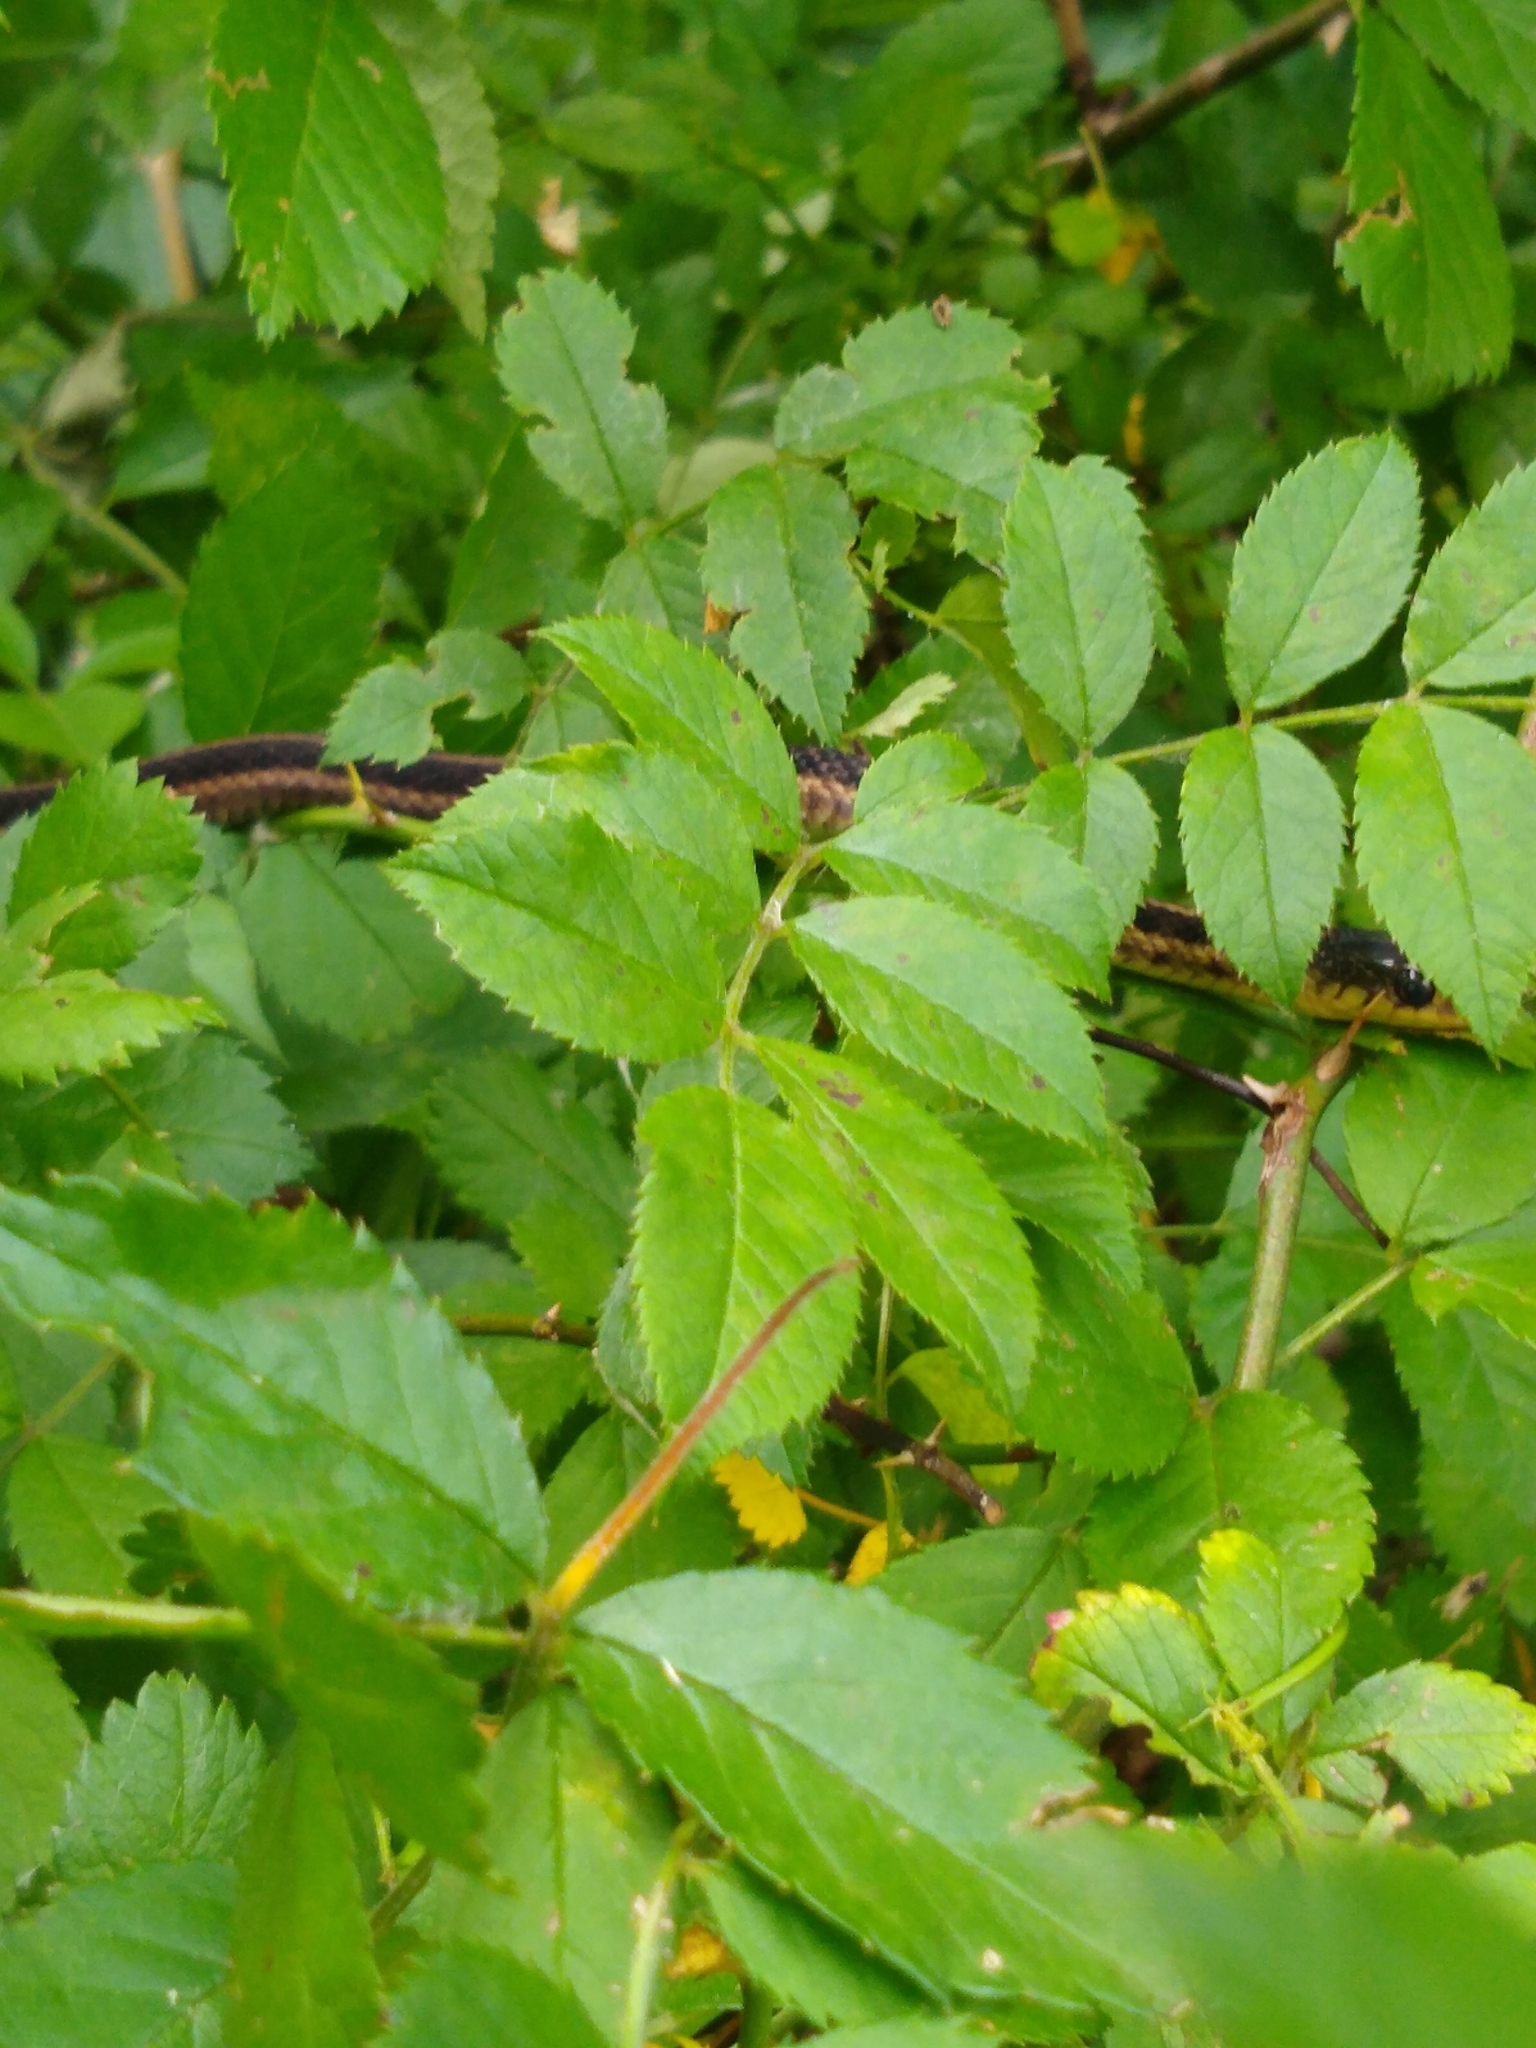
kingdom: Animalia
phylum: Chordata
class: Squamata
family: Colubridae
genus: Thamnophis
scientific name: Thamnophis sirtalis
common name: Common garter snake
